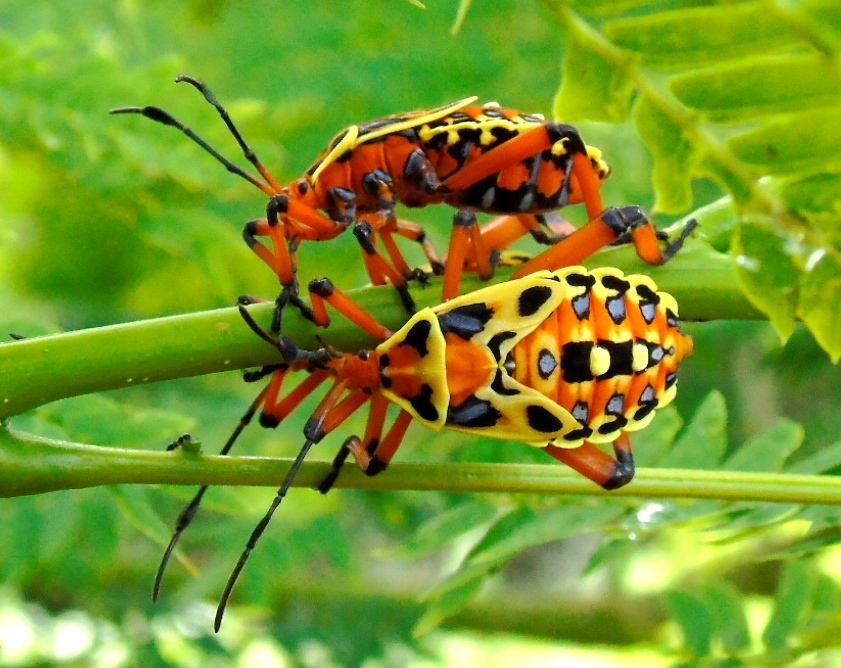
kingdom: Animalia
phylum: Arthropoda
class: Insecta
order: Hemiptera
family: Coreidae
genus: Pachylis
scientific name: Pachylis nervosus
